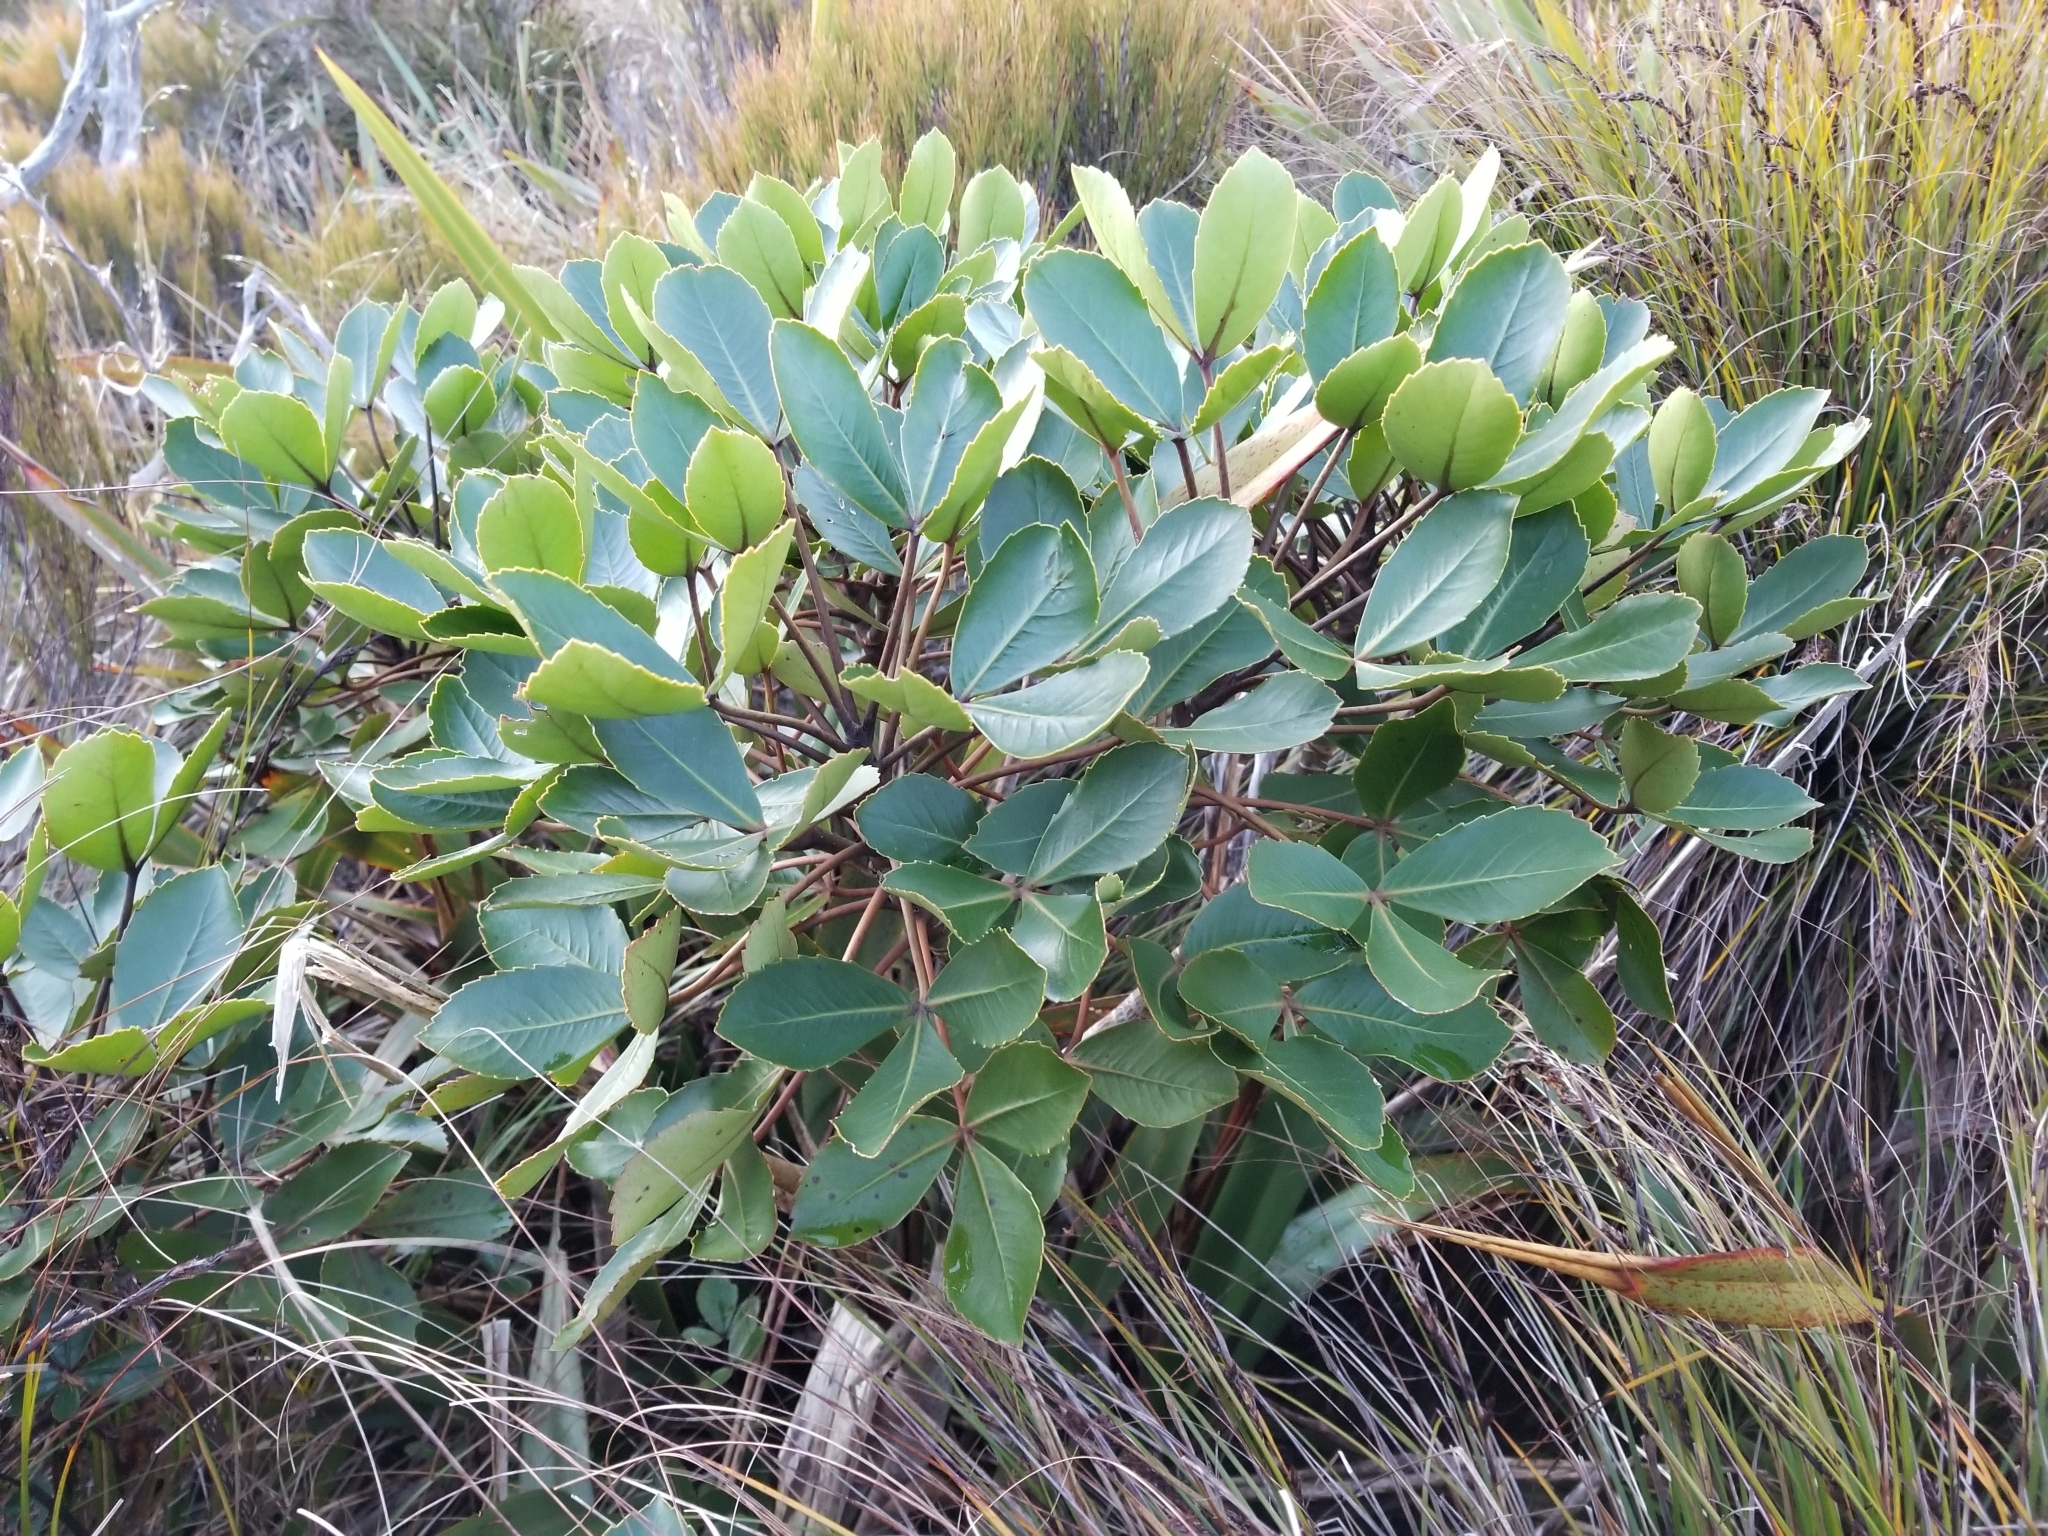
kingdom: Plantae
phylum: Tracheophyta
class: Magnoliopsida
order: Apiales
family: Araliaceae
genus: Neopanax
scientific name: Neopanax colensoi
